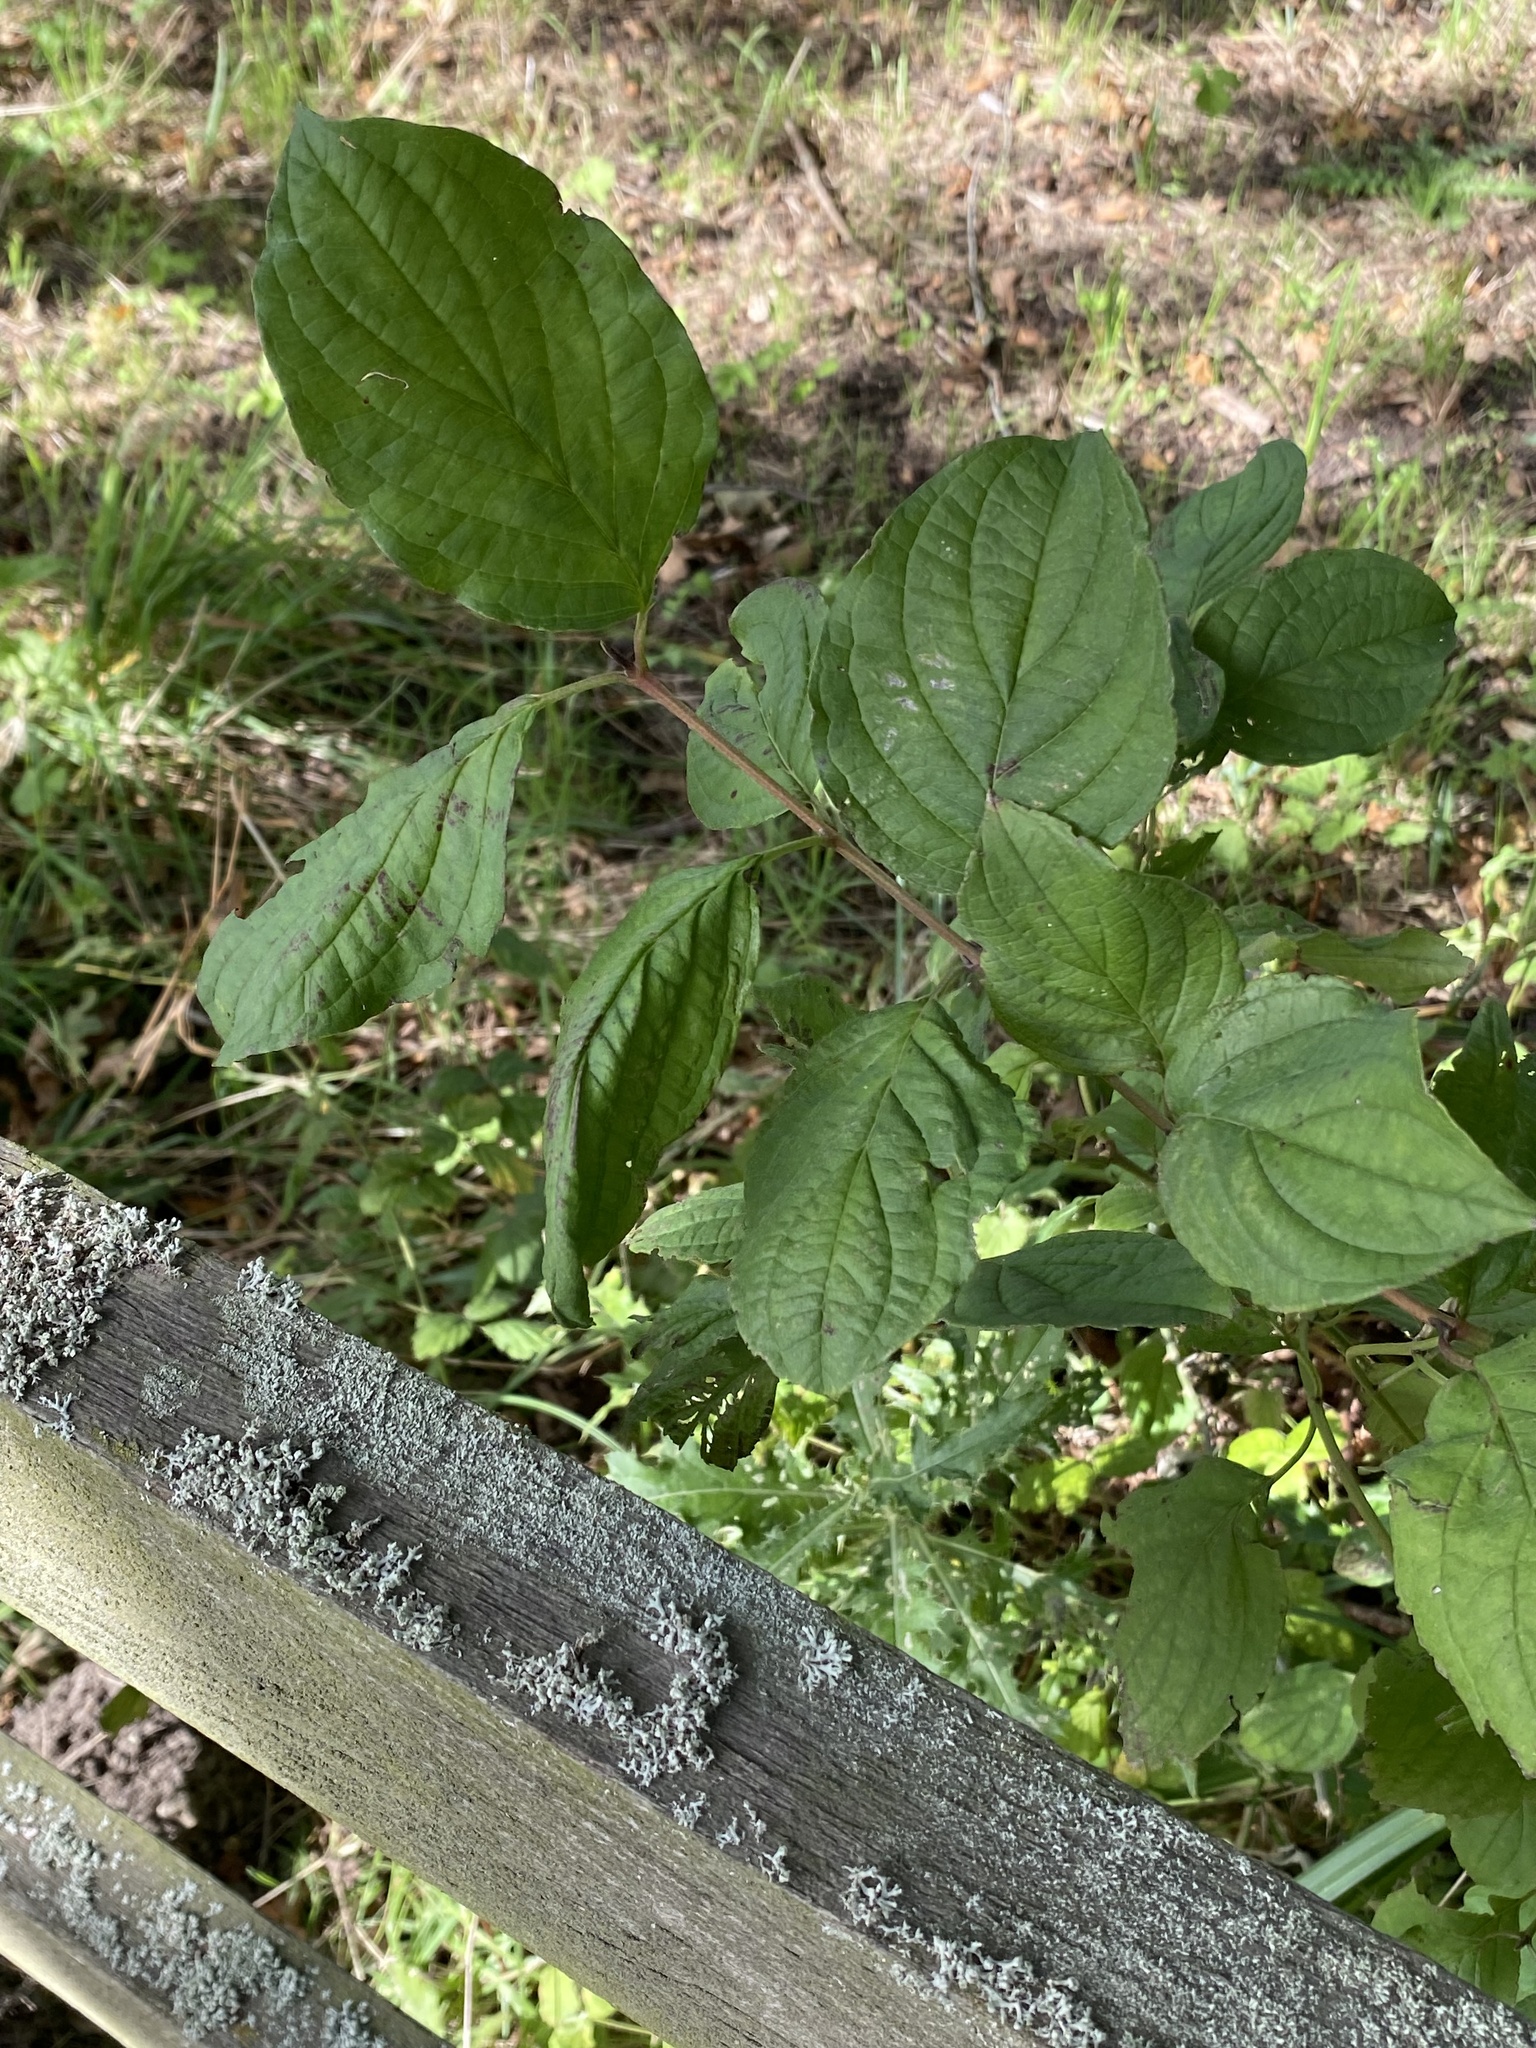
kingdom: Plantae
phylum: Tracheophyta
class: Magnoliopsida
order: Cornales
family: Cornaceae
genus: Cornus
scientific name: Cornus sanguinea
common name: Dogwood
